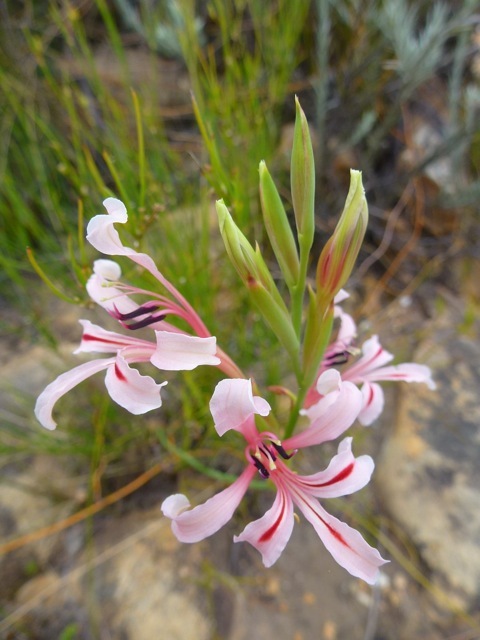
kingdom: Plantae
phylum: Tracheophyta
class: Liliopsida
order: Asparagales
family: Iridaceae
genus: Tritoniopsis
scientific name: Tritoniopsis ramosa
